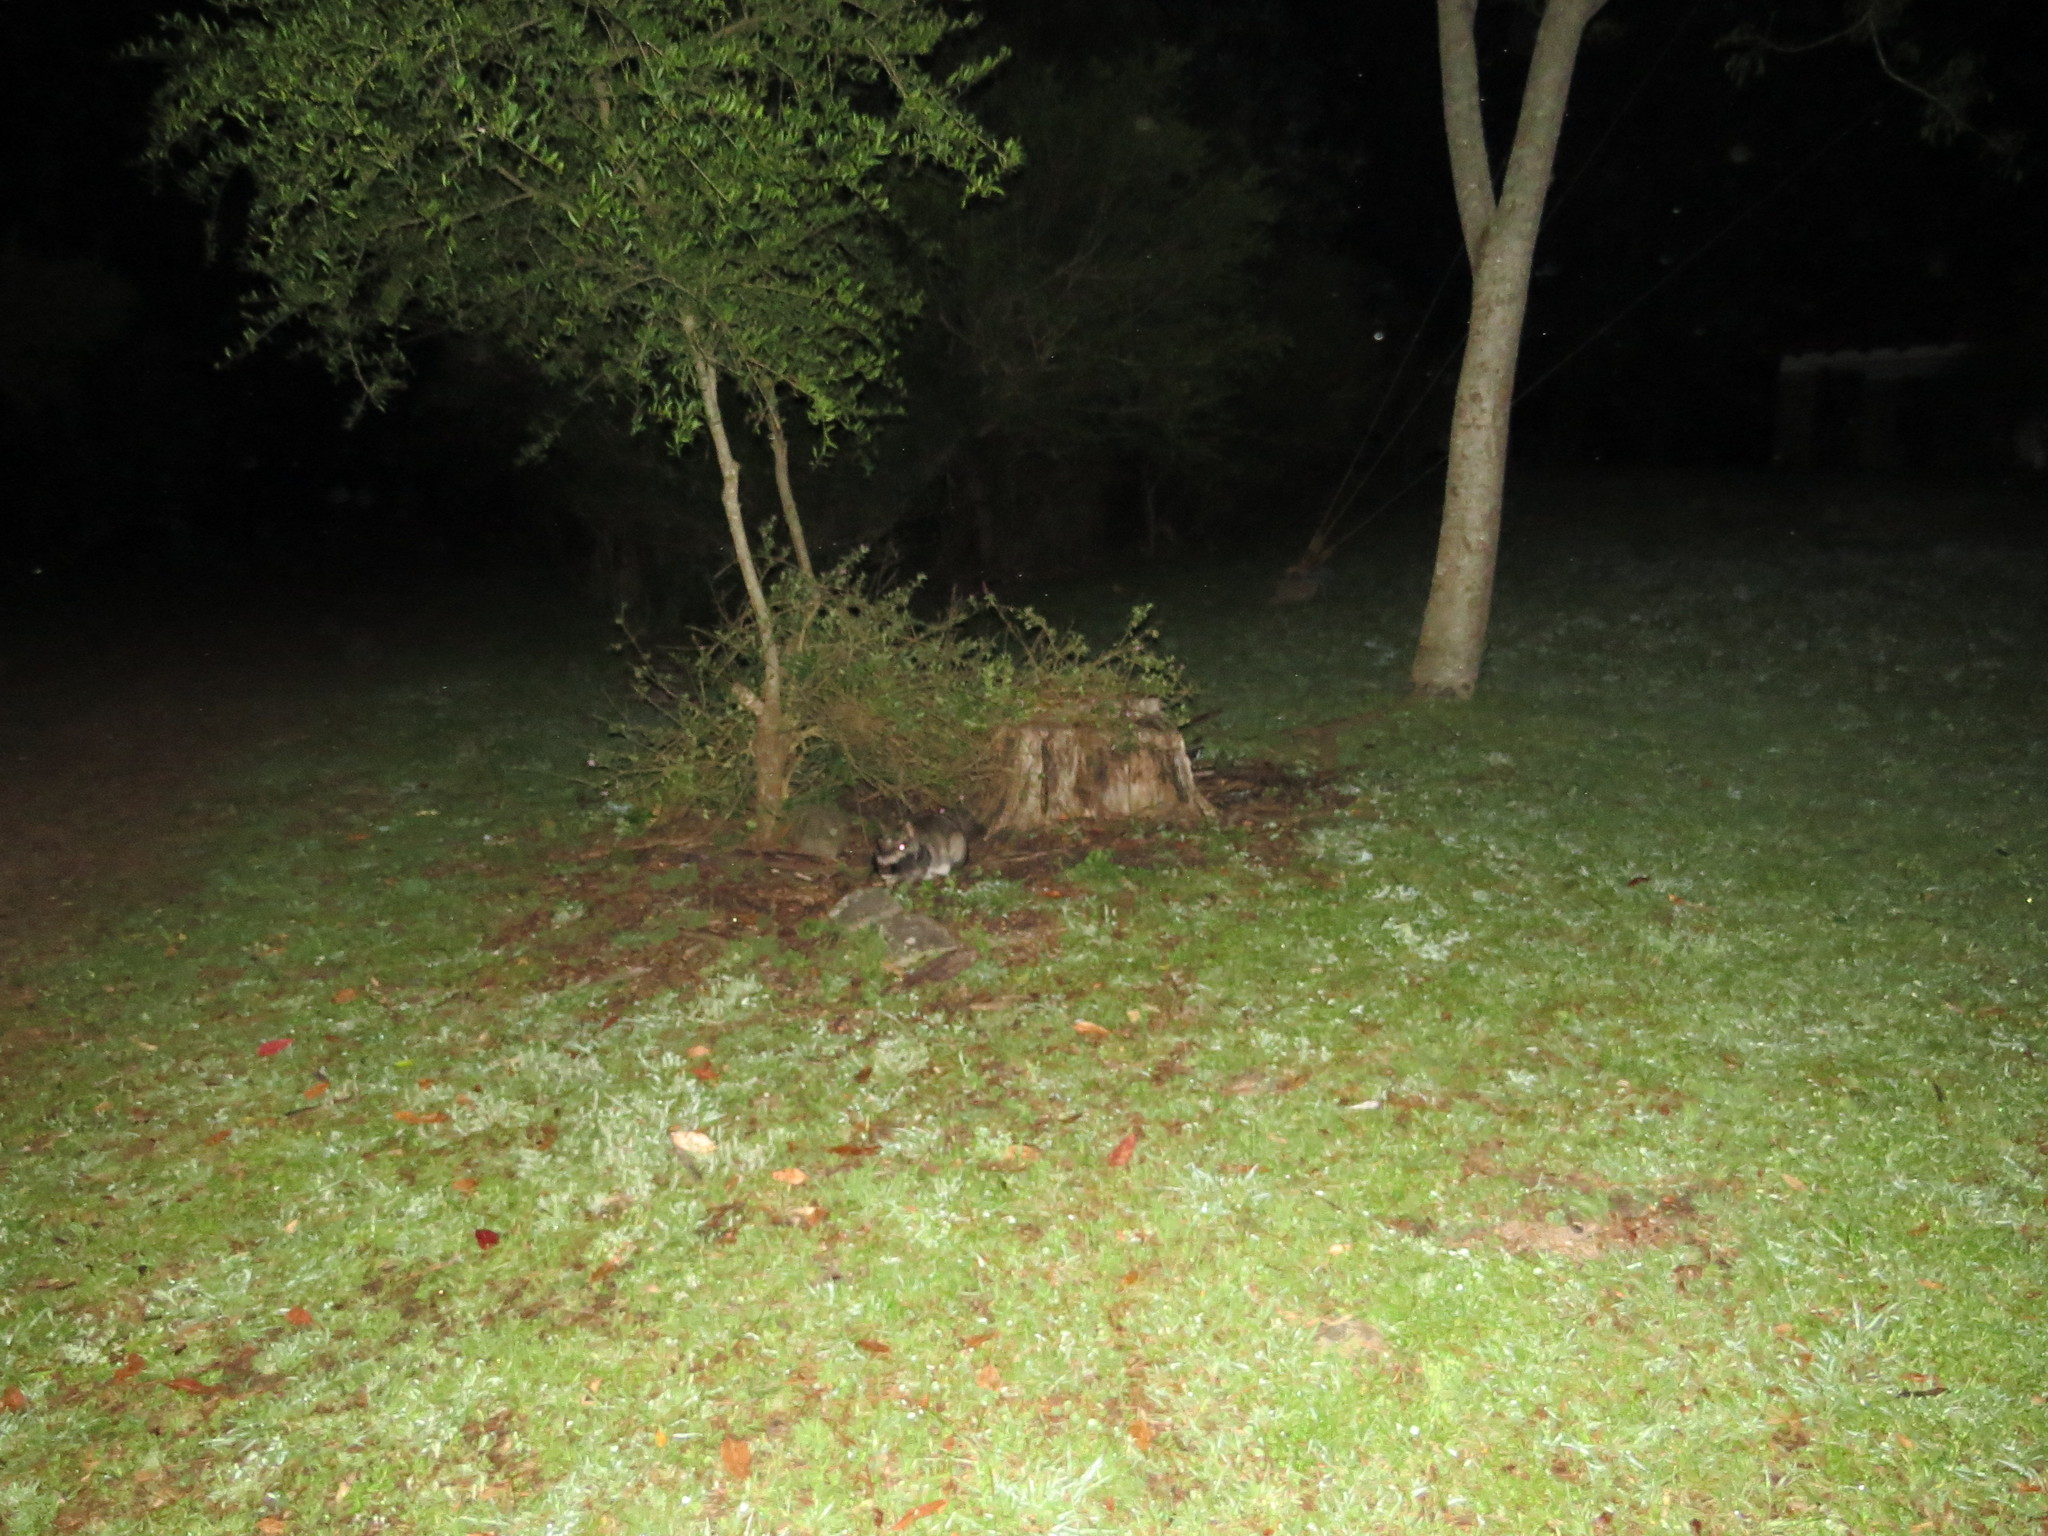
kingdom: Animalia
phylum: Chordata
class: Mammalia
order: Rodentia
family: Chinchillidae
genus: Lagostomus
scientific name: Lagostomus maximus
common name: Plains viscacha
